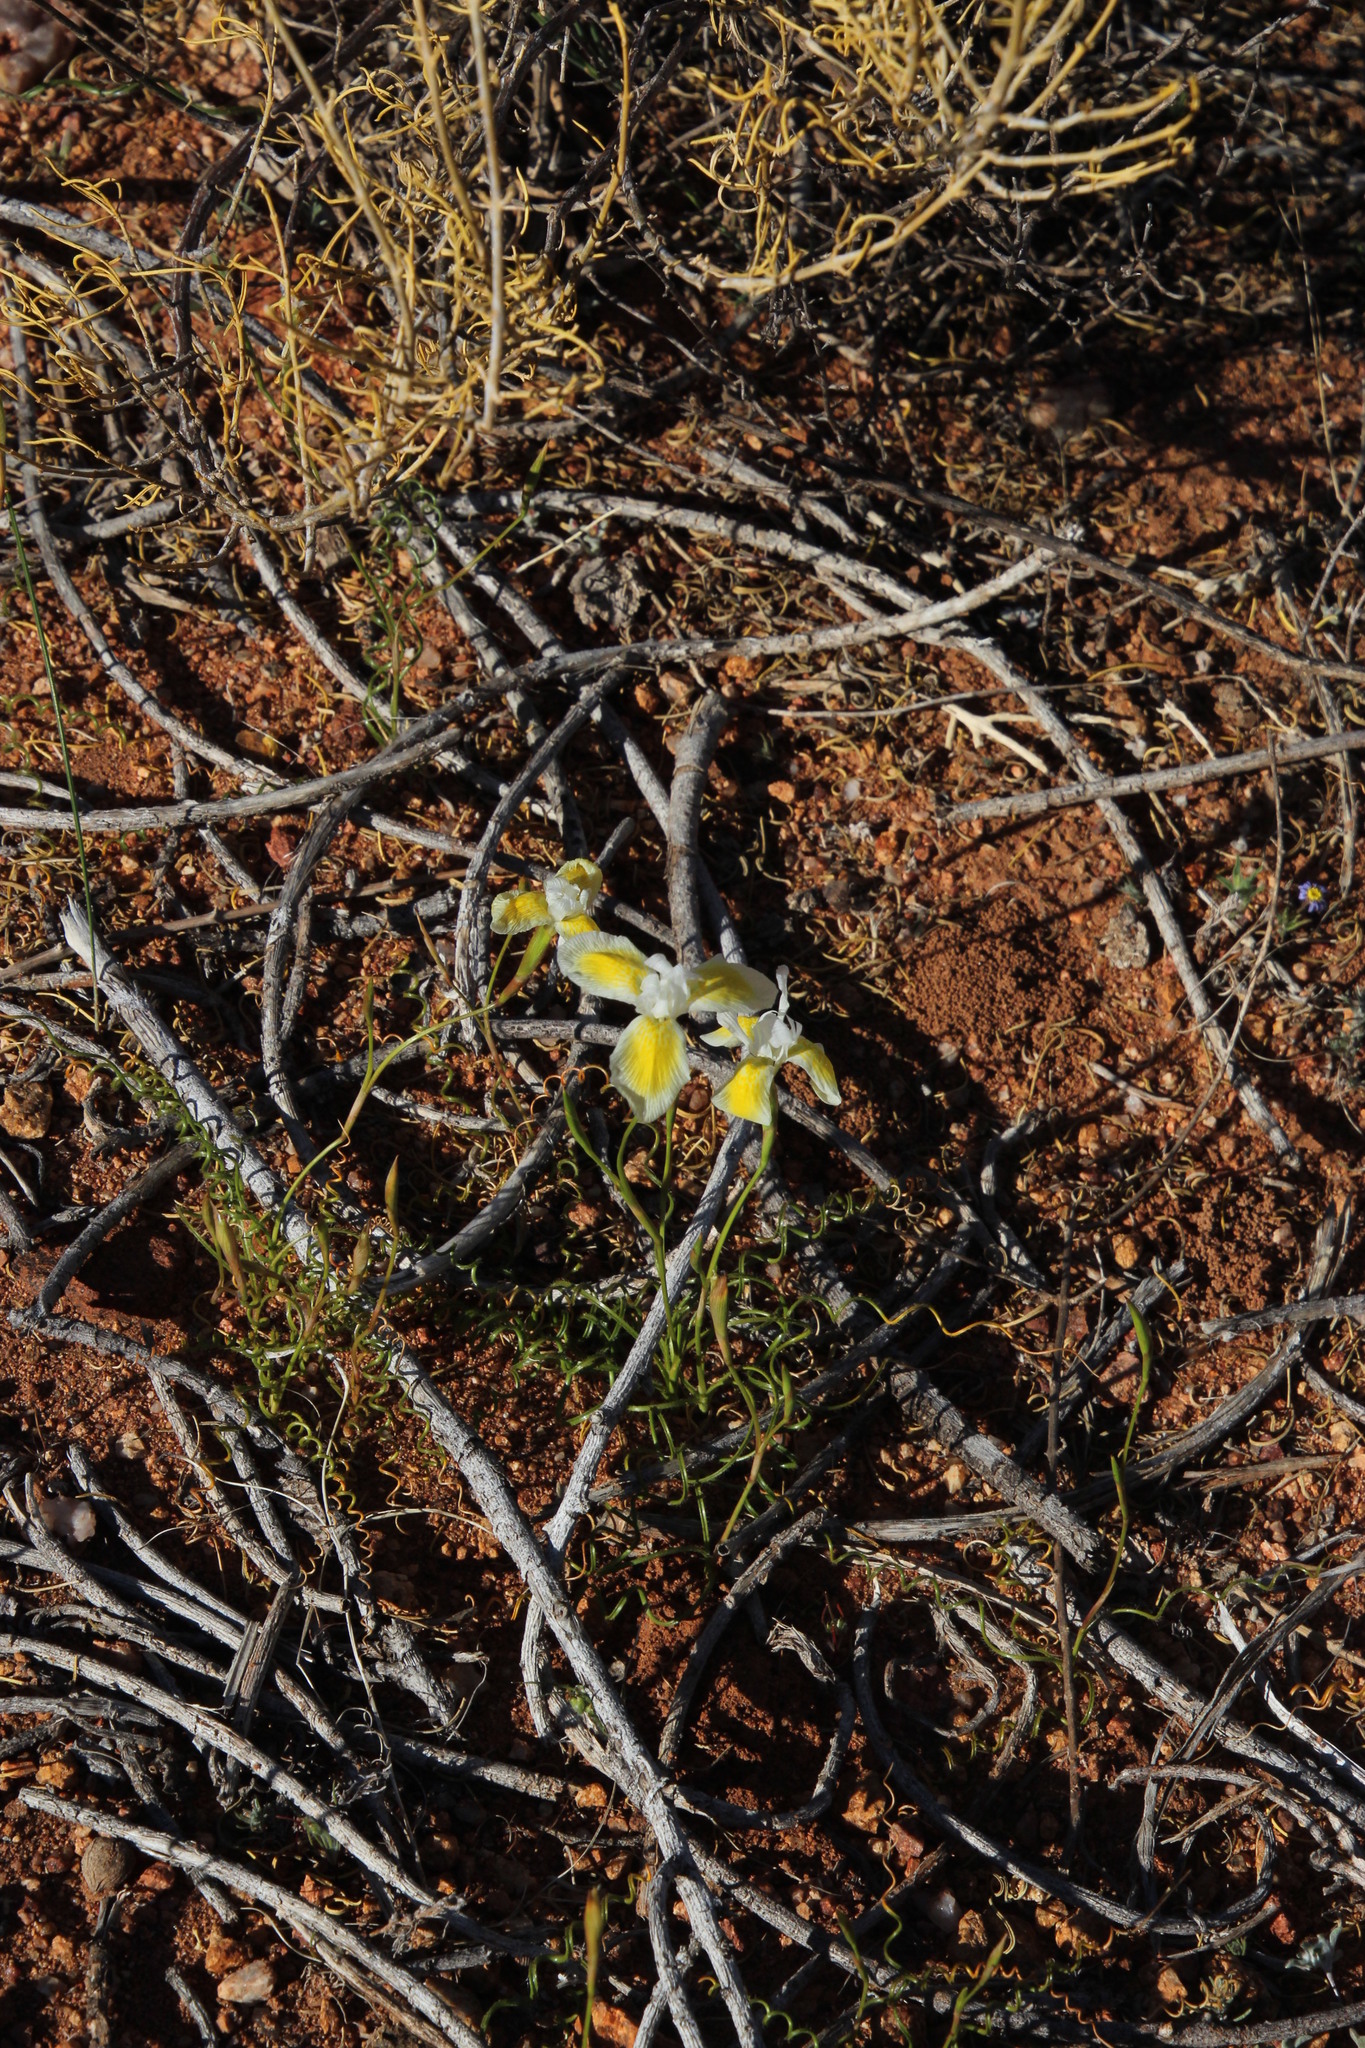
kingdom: Plantae
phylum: Tracheophyta
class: Liliopsida
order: Asparagales
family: Iridaceae
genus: Moraea
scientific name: Moraea serpentina
